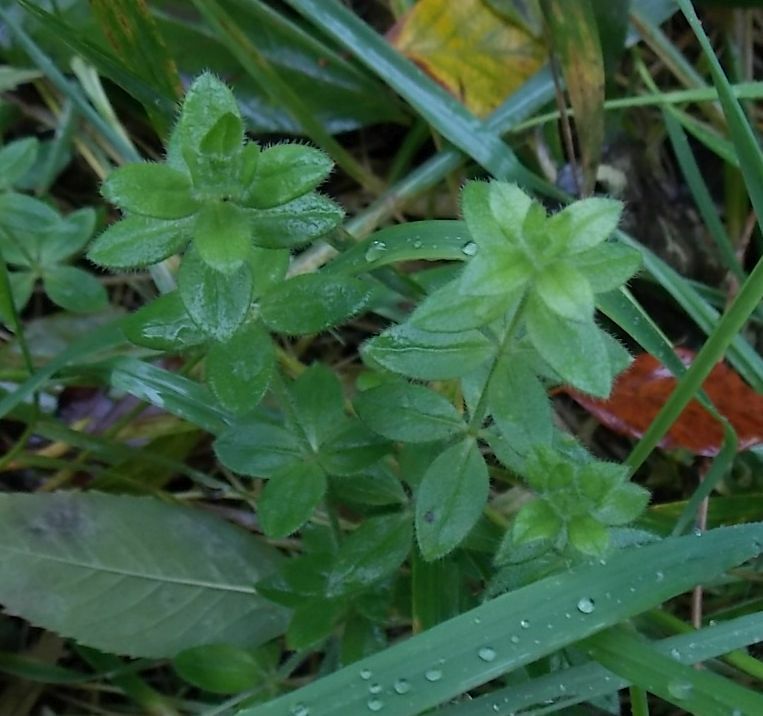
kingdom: Plantae
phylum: Tracheophyta
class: Magnoliopsida
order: Gentianales
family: Rubiaceae
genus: Cruciata
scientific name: Cruciata laevipes
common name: Crosswort
